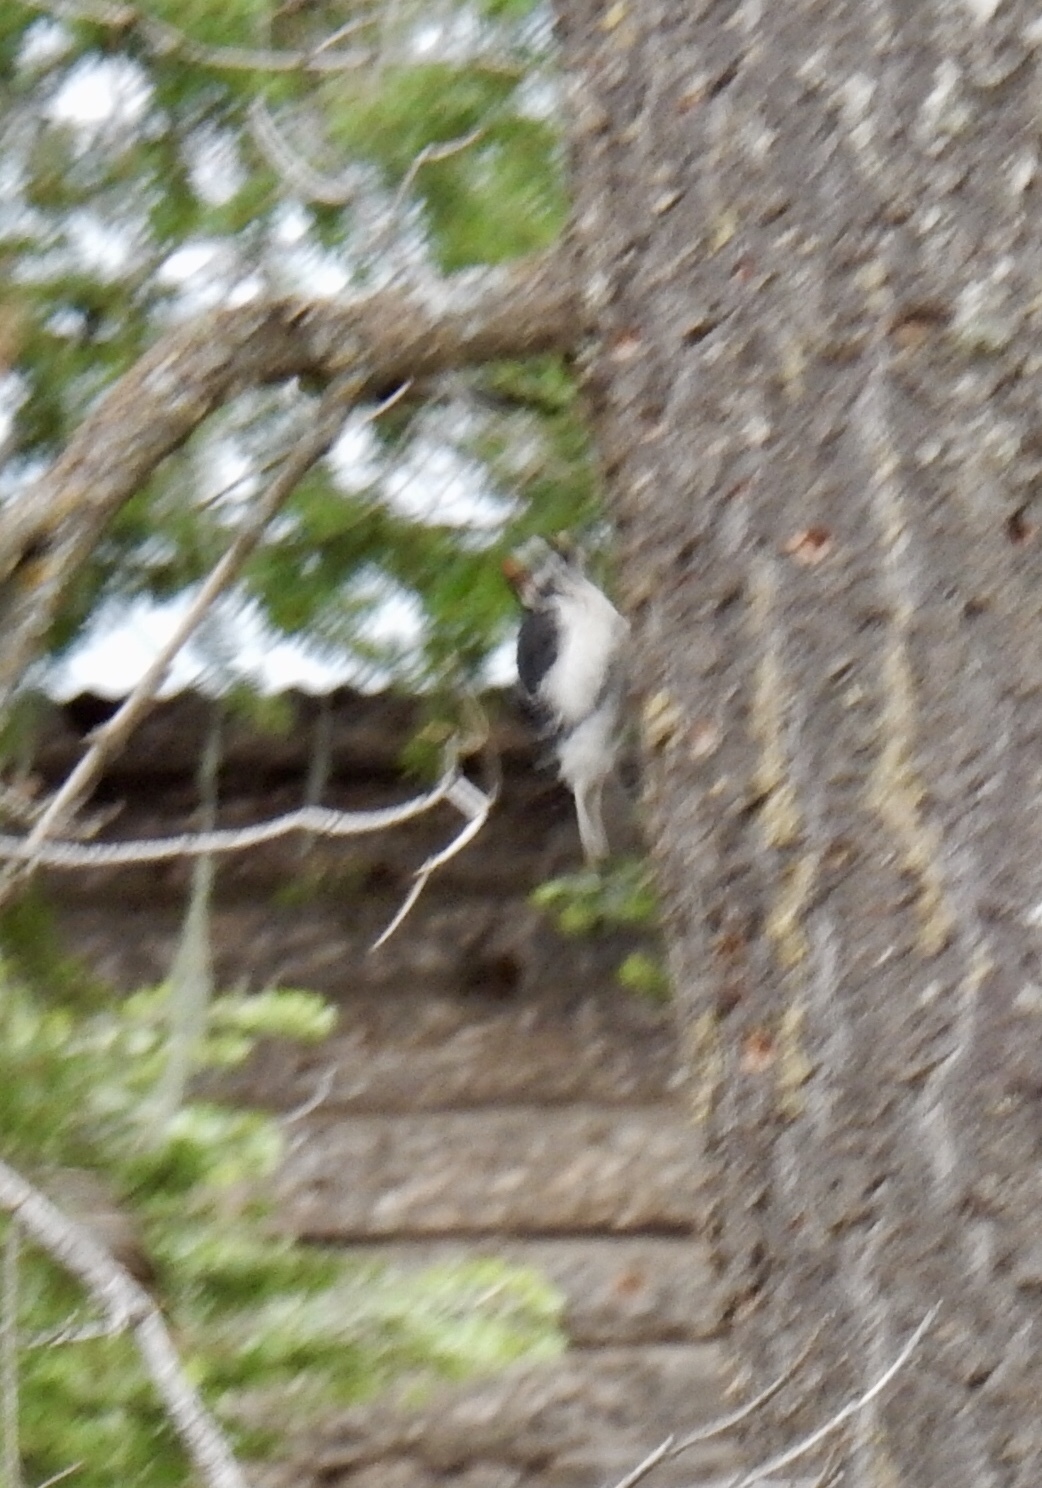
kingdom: Animalia
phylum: Chordata
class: Aves
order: Piciformes
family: Picidae
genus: Leuconotopicus
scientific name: Leuconotopicus villosus
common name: Hairy woodpecker
